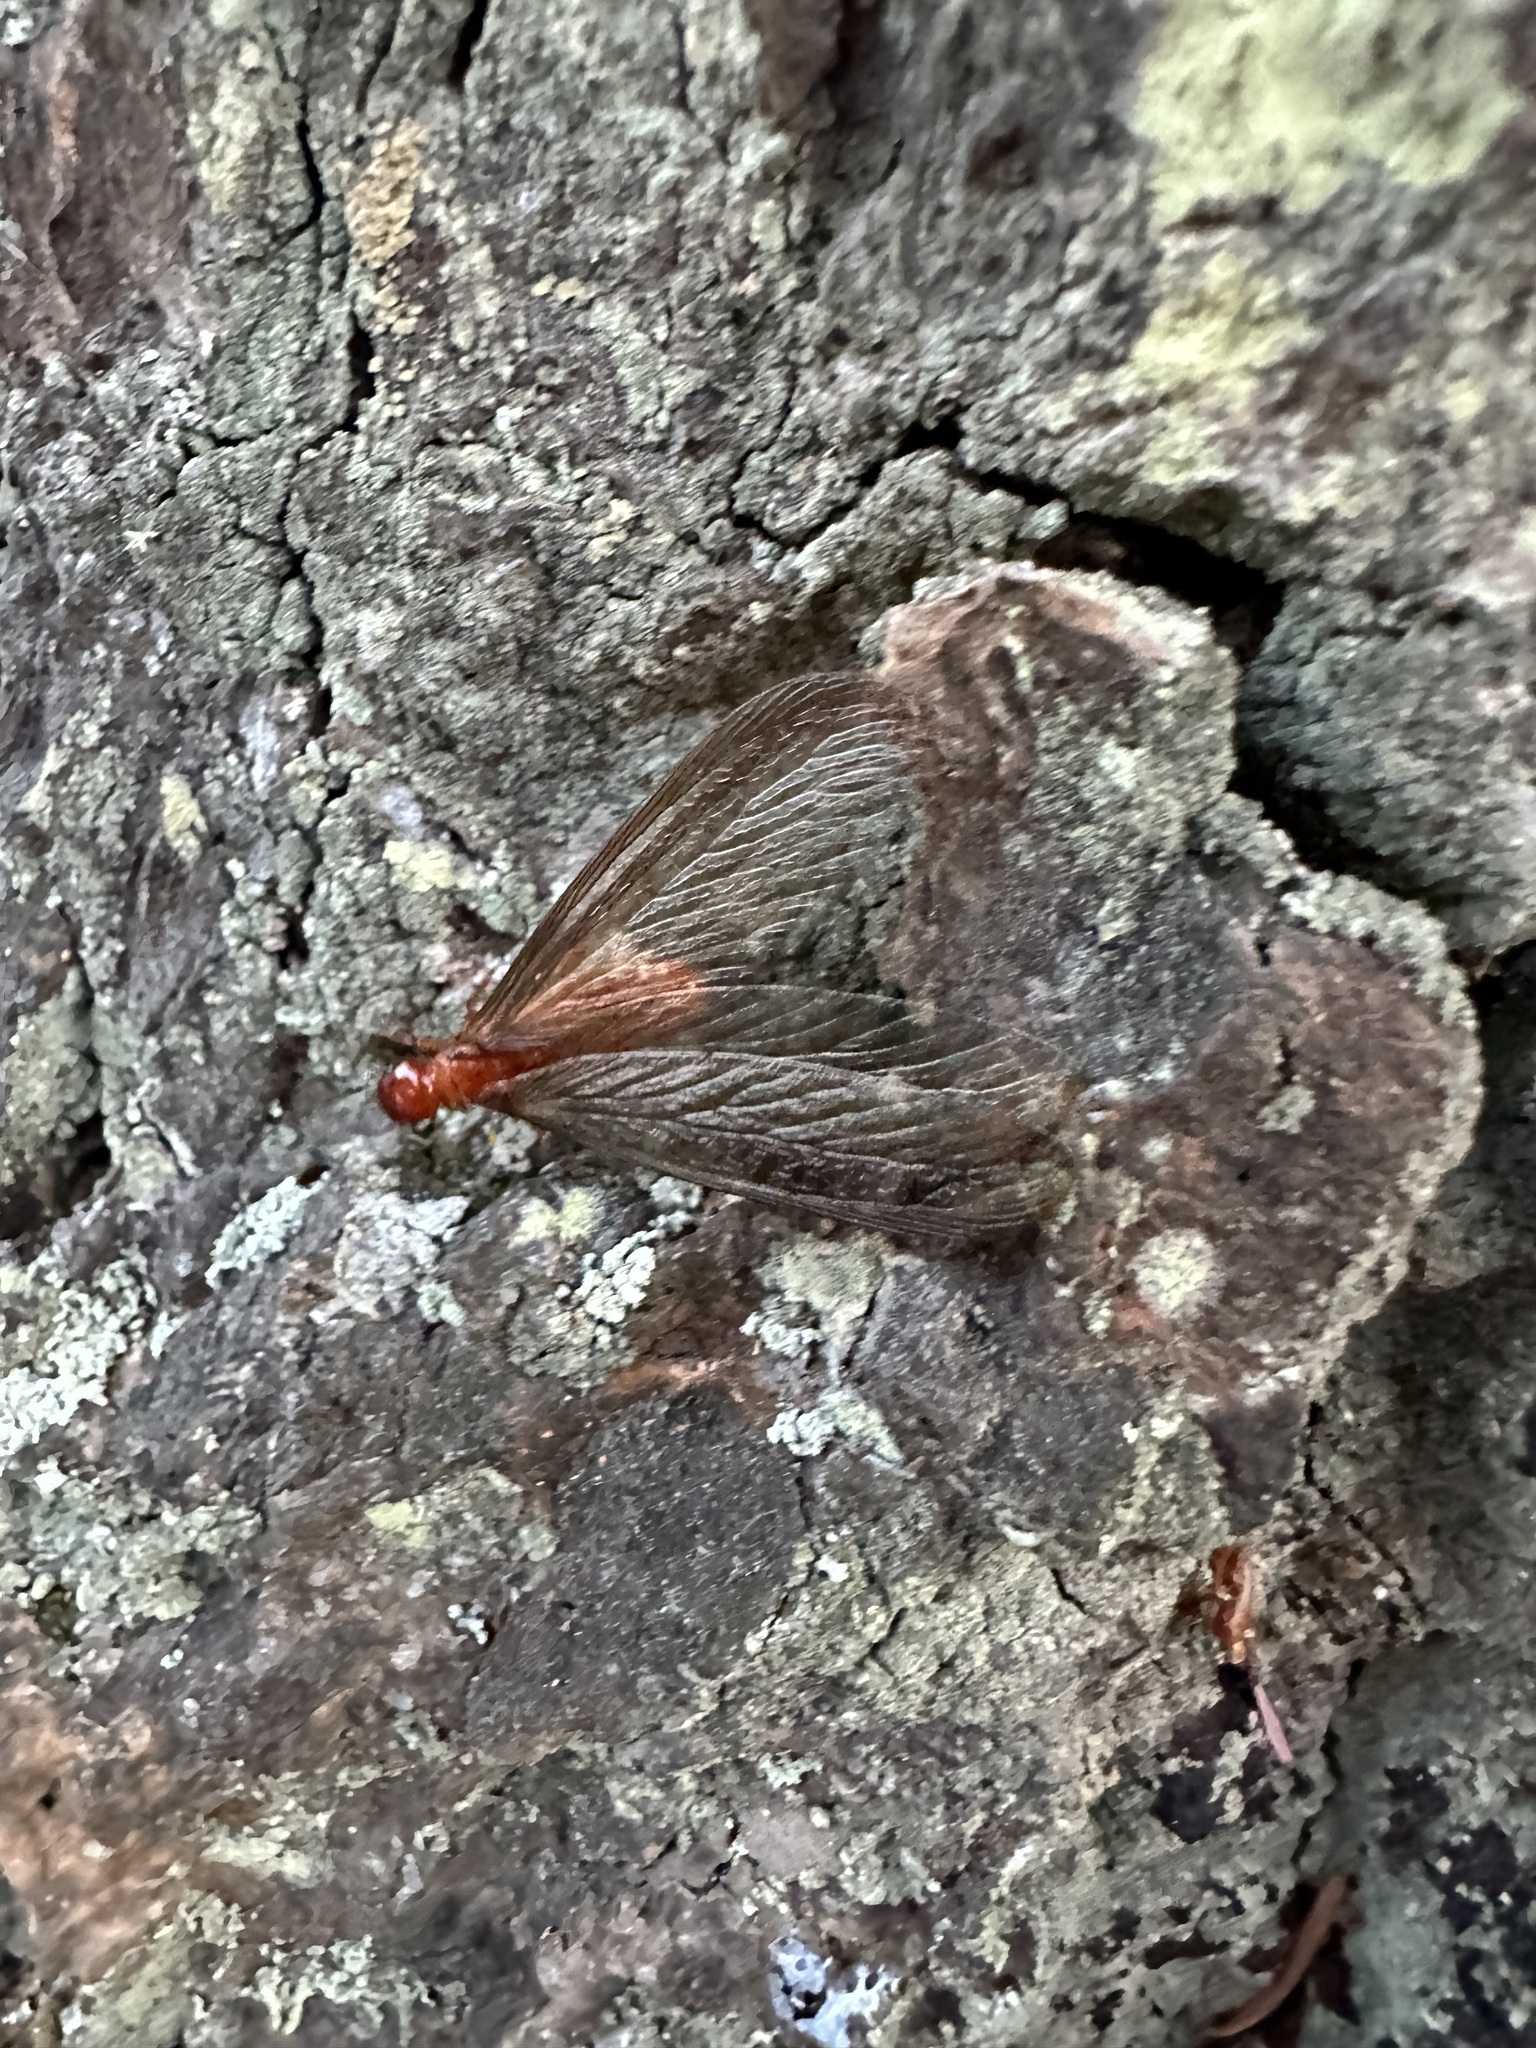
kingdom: Animalia
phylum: Arthropoda
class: Insecta
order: Blattodea
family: Archotermopsidae
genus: Zootermopsis
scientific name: Zootermopsis angusticollis
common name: Rottenwood termite
